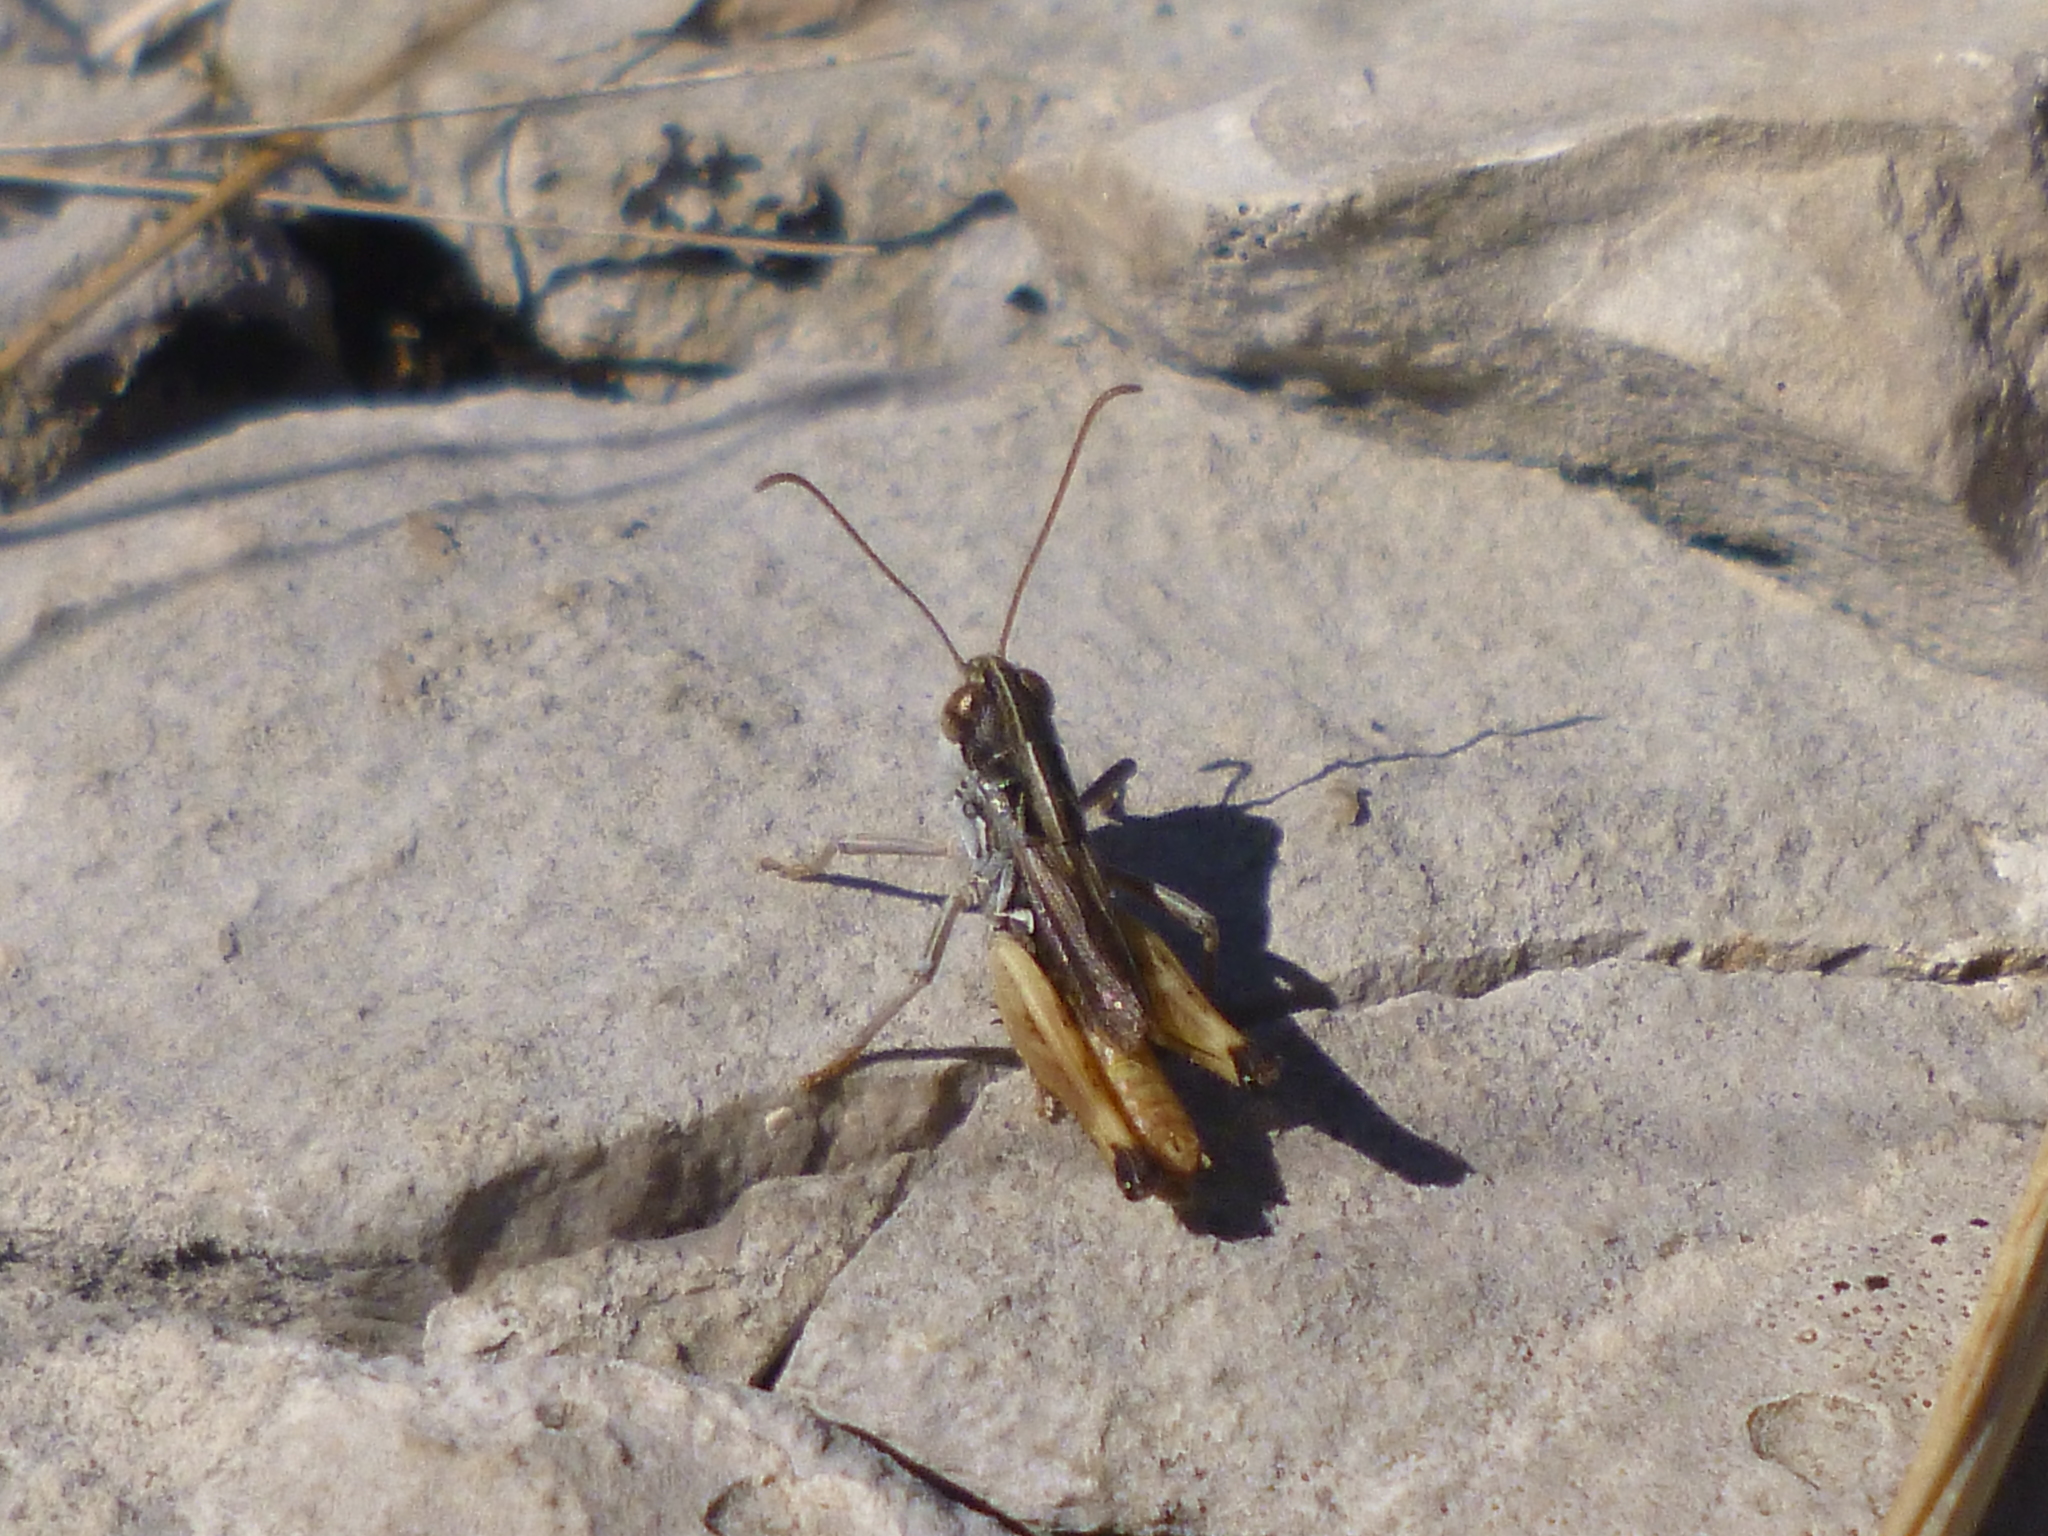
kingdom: Animalia
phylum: Arthropoda
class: Insecta
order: Orthoptera
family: Acrididae
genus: Rammeihippus
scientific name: Rammeihippus dinaricus
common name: Dinarian grasshopper
